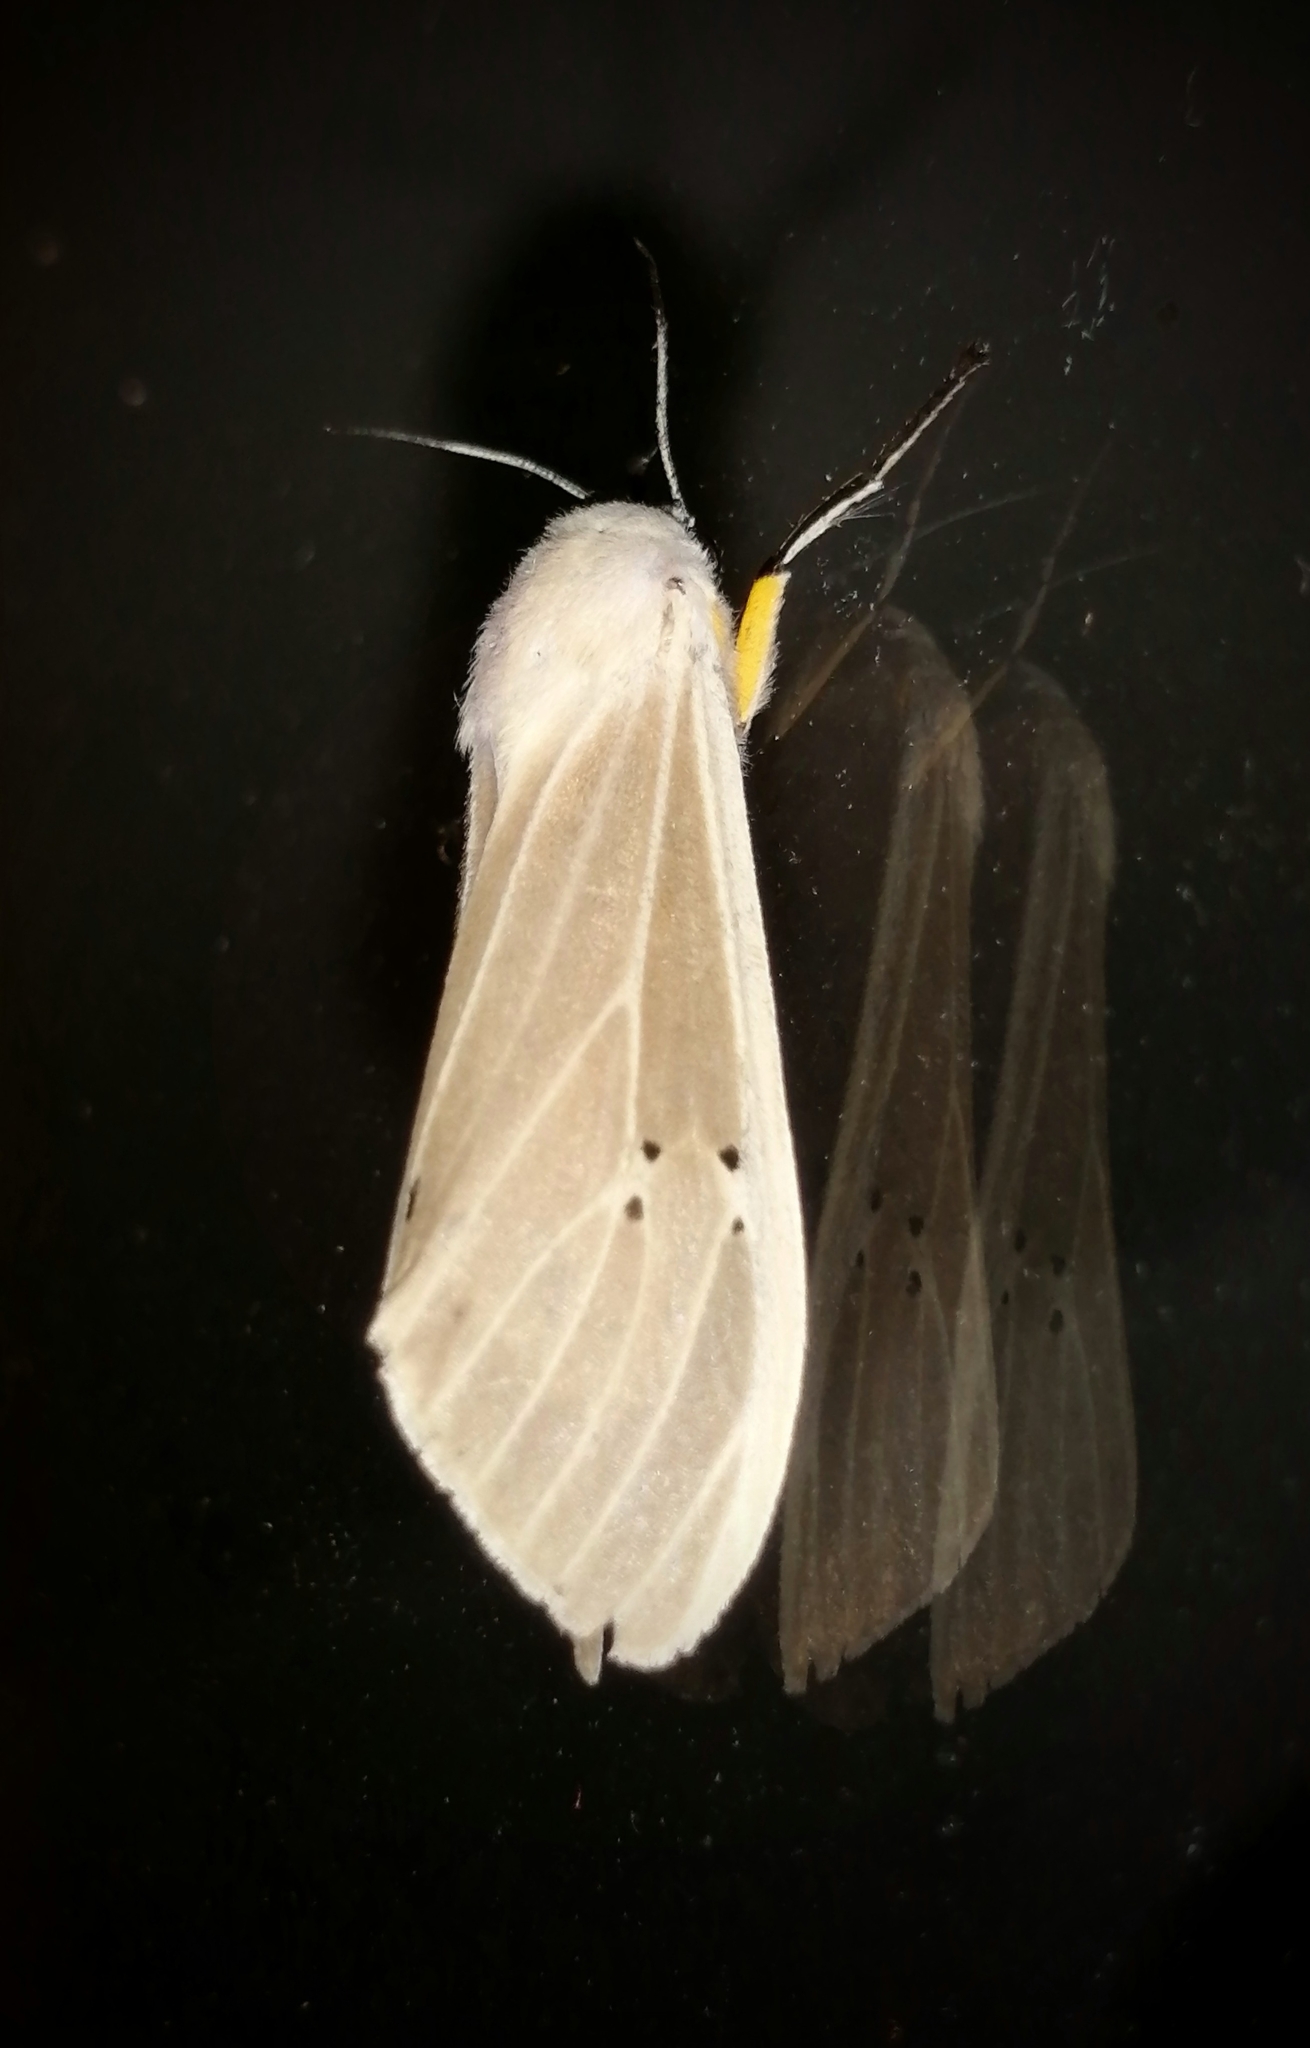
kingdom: Animalia
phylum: Arthropoda
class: Insecta
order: Lepidoptera
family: Erebidae
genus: Creatonotos
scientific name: Creatonotos transiens
